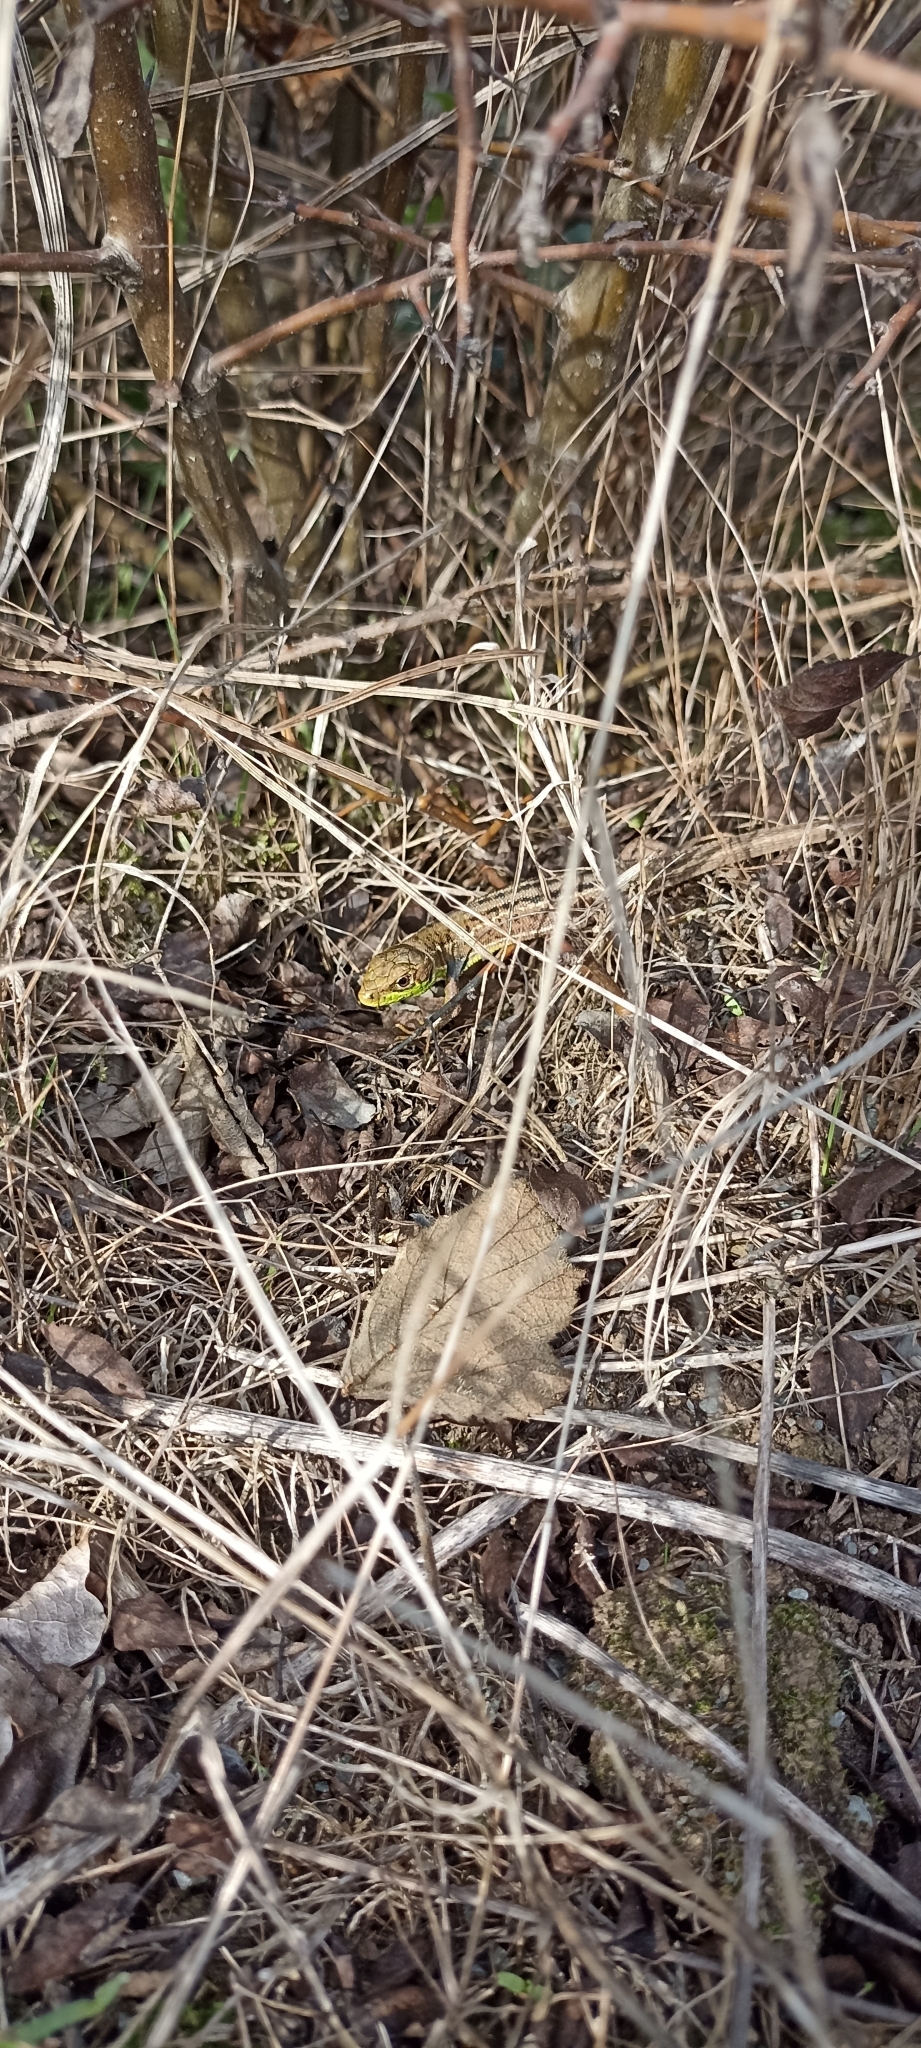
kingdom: Animalia
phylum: Chordata
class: Squamata
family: Lacertidae
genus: Lacerta
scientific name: Lacerta bilineata
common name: Western green lizard
